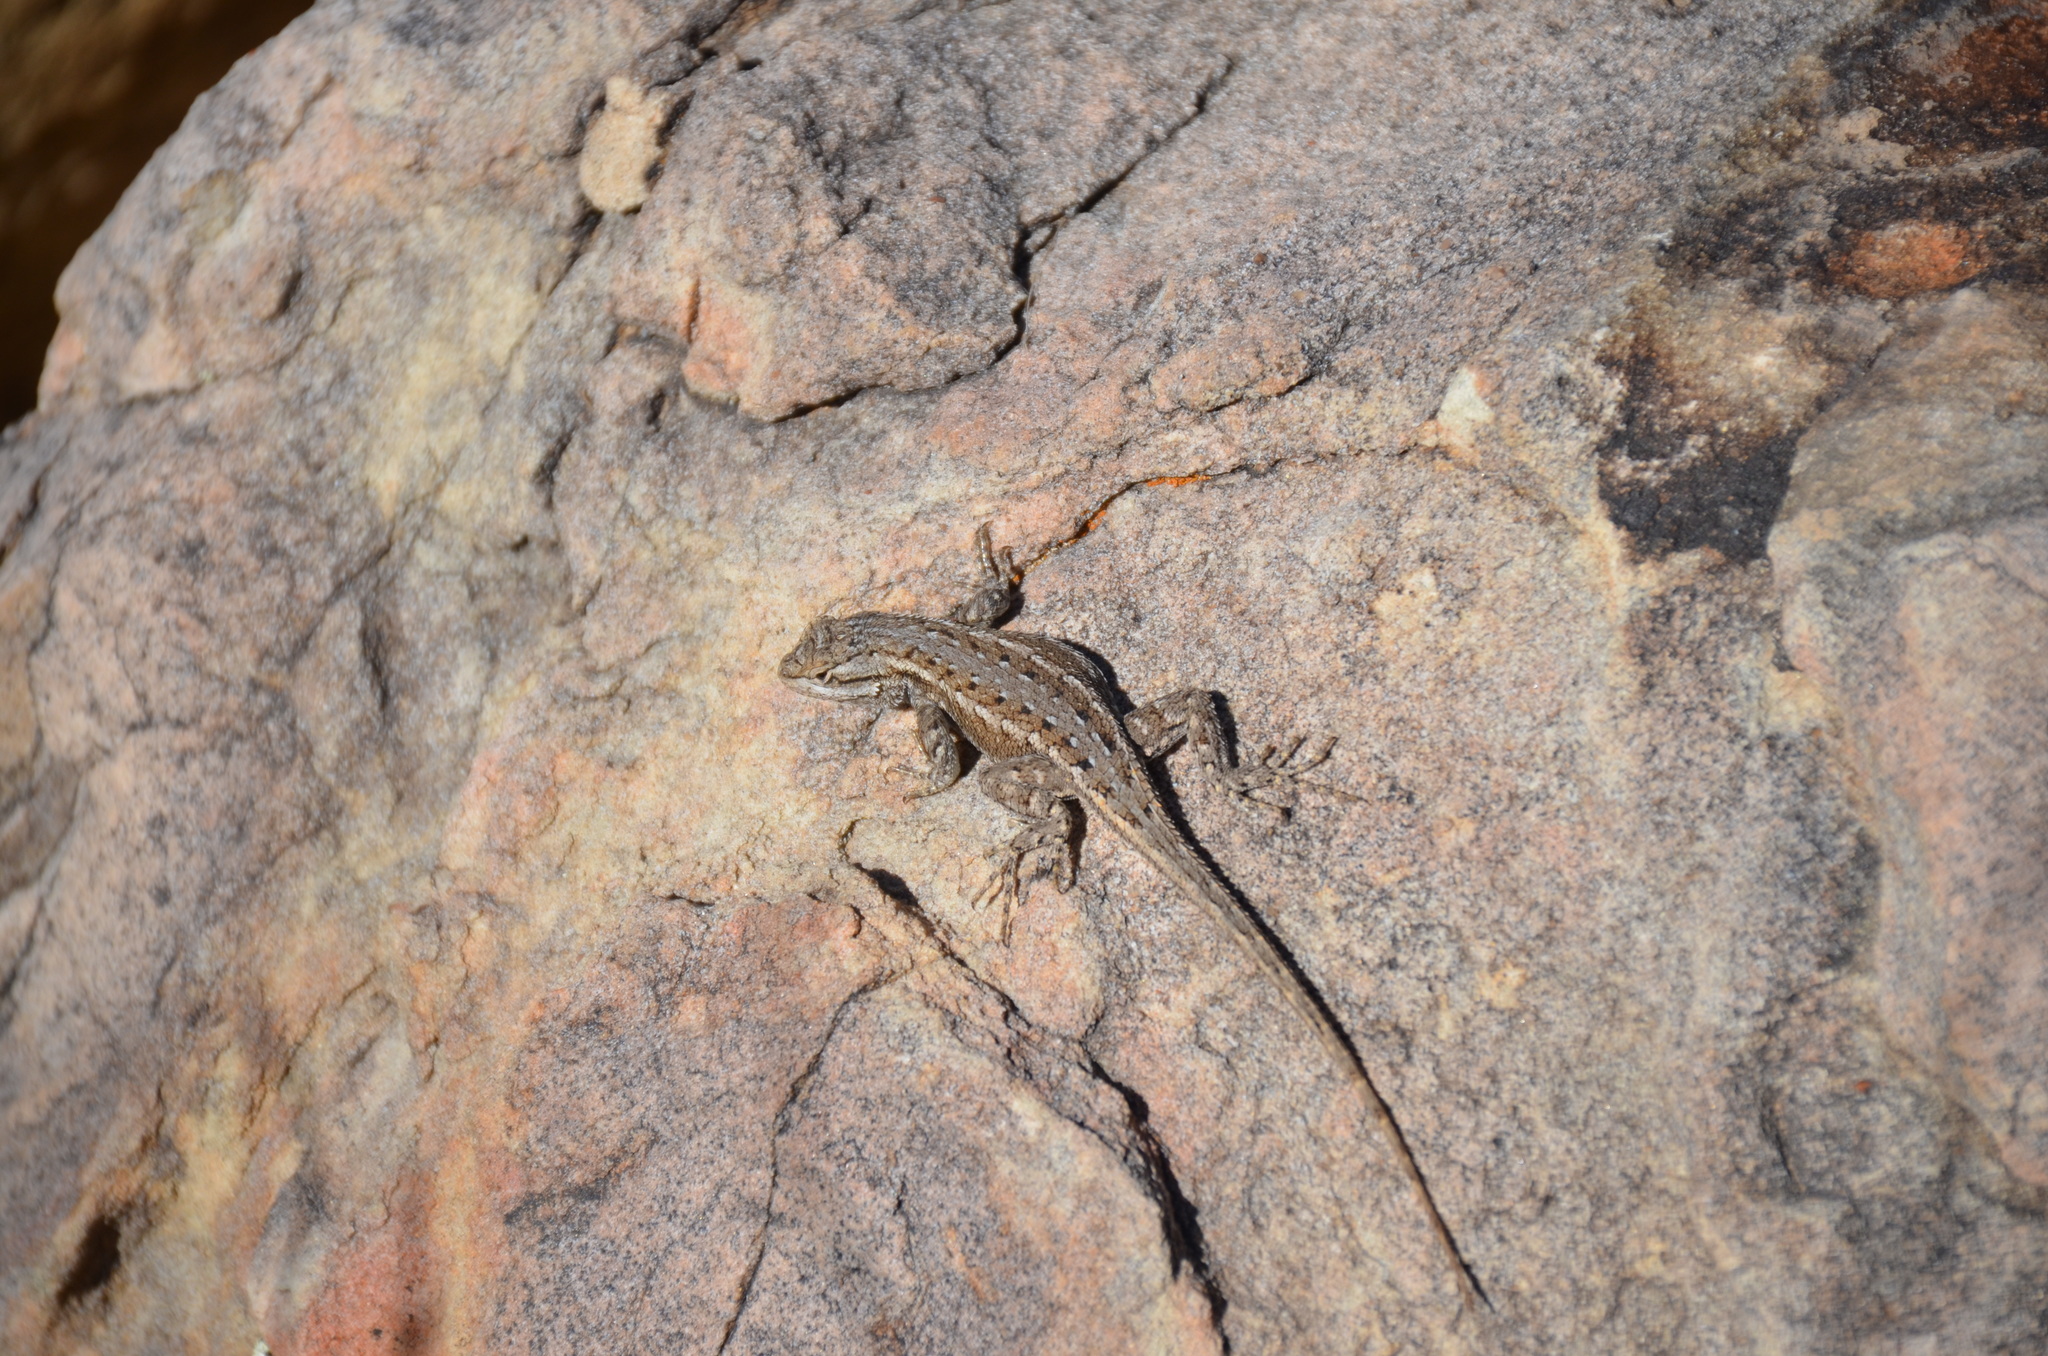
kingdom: Animalia
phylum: Chordata
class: Squamata
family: Phrynosomatidae
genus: Sceloporus
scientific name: Sceloporus cowlesi
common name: White sands prairie lizard
